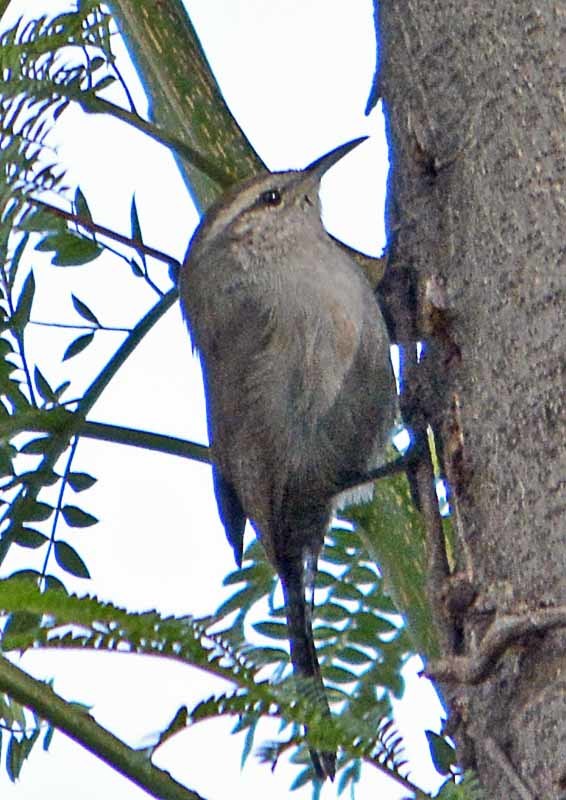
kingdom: Animalia
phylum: Chordata
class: Aves
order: Passeriformes
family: Troglodytidae
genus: Thryomanes
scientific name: Thryomanes bewickii
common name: Bewick's wren
